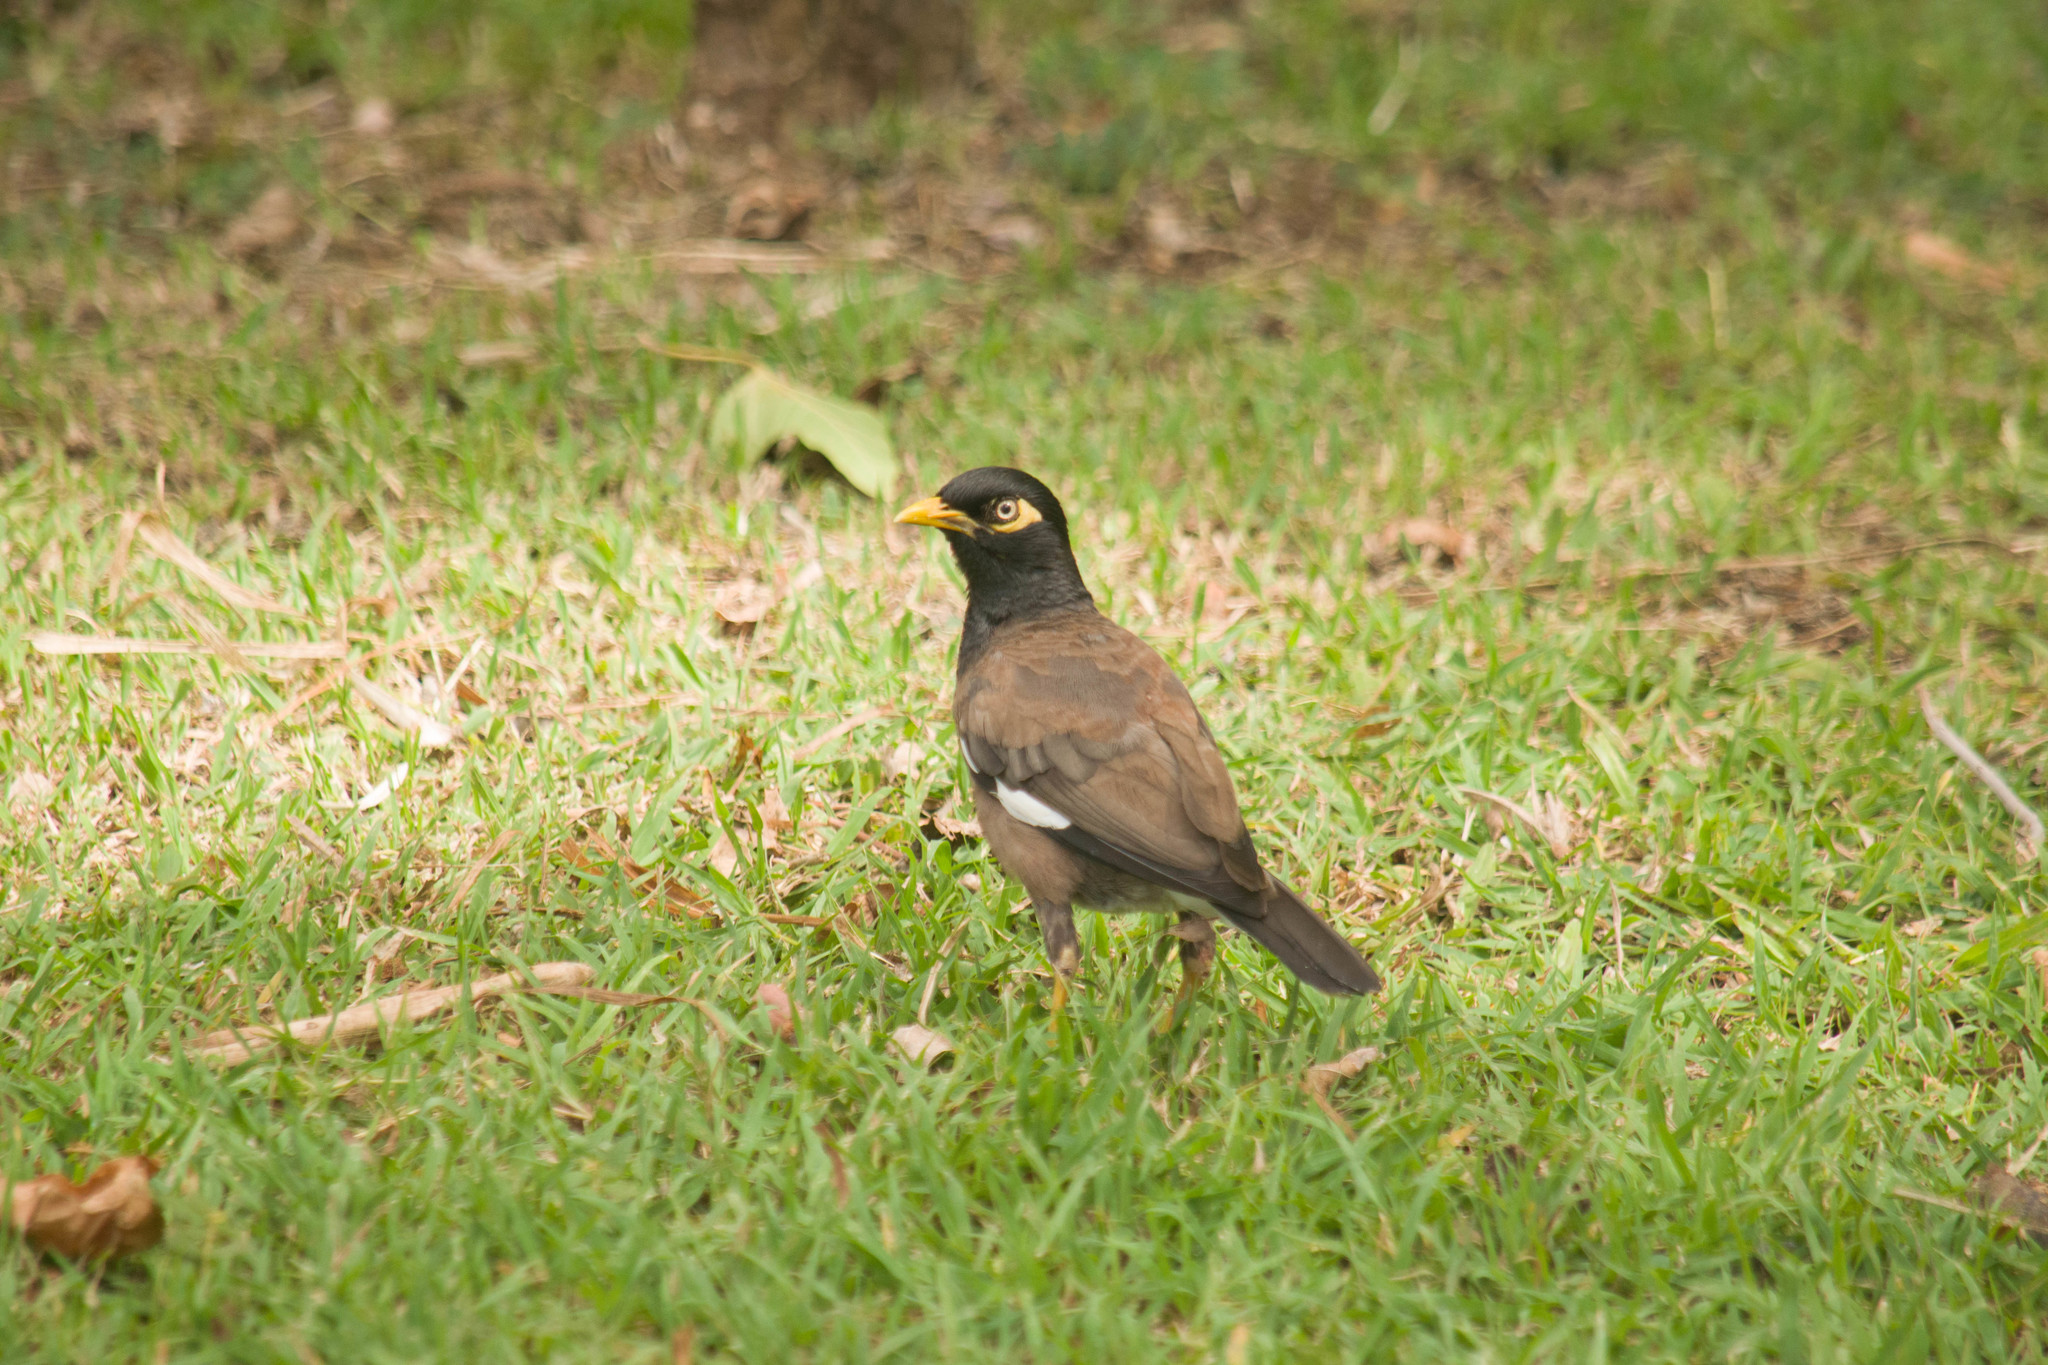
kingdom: Animalia
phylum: Chordata
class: Aves
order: Passeriformes
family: Sturnidae
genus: Acridotheres
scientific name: Acridotheres tristis
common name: Common myna
